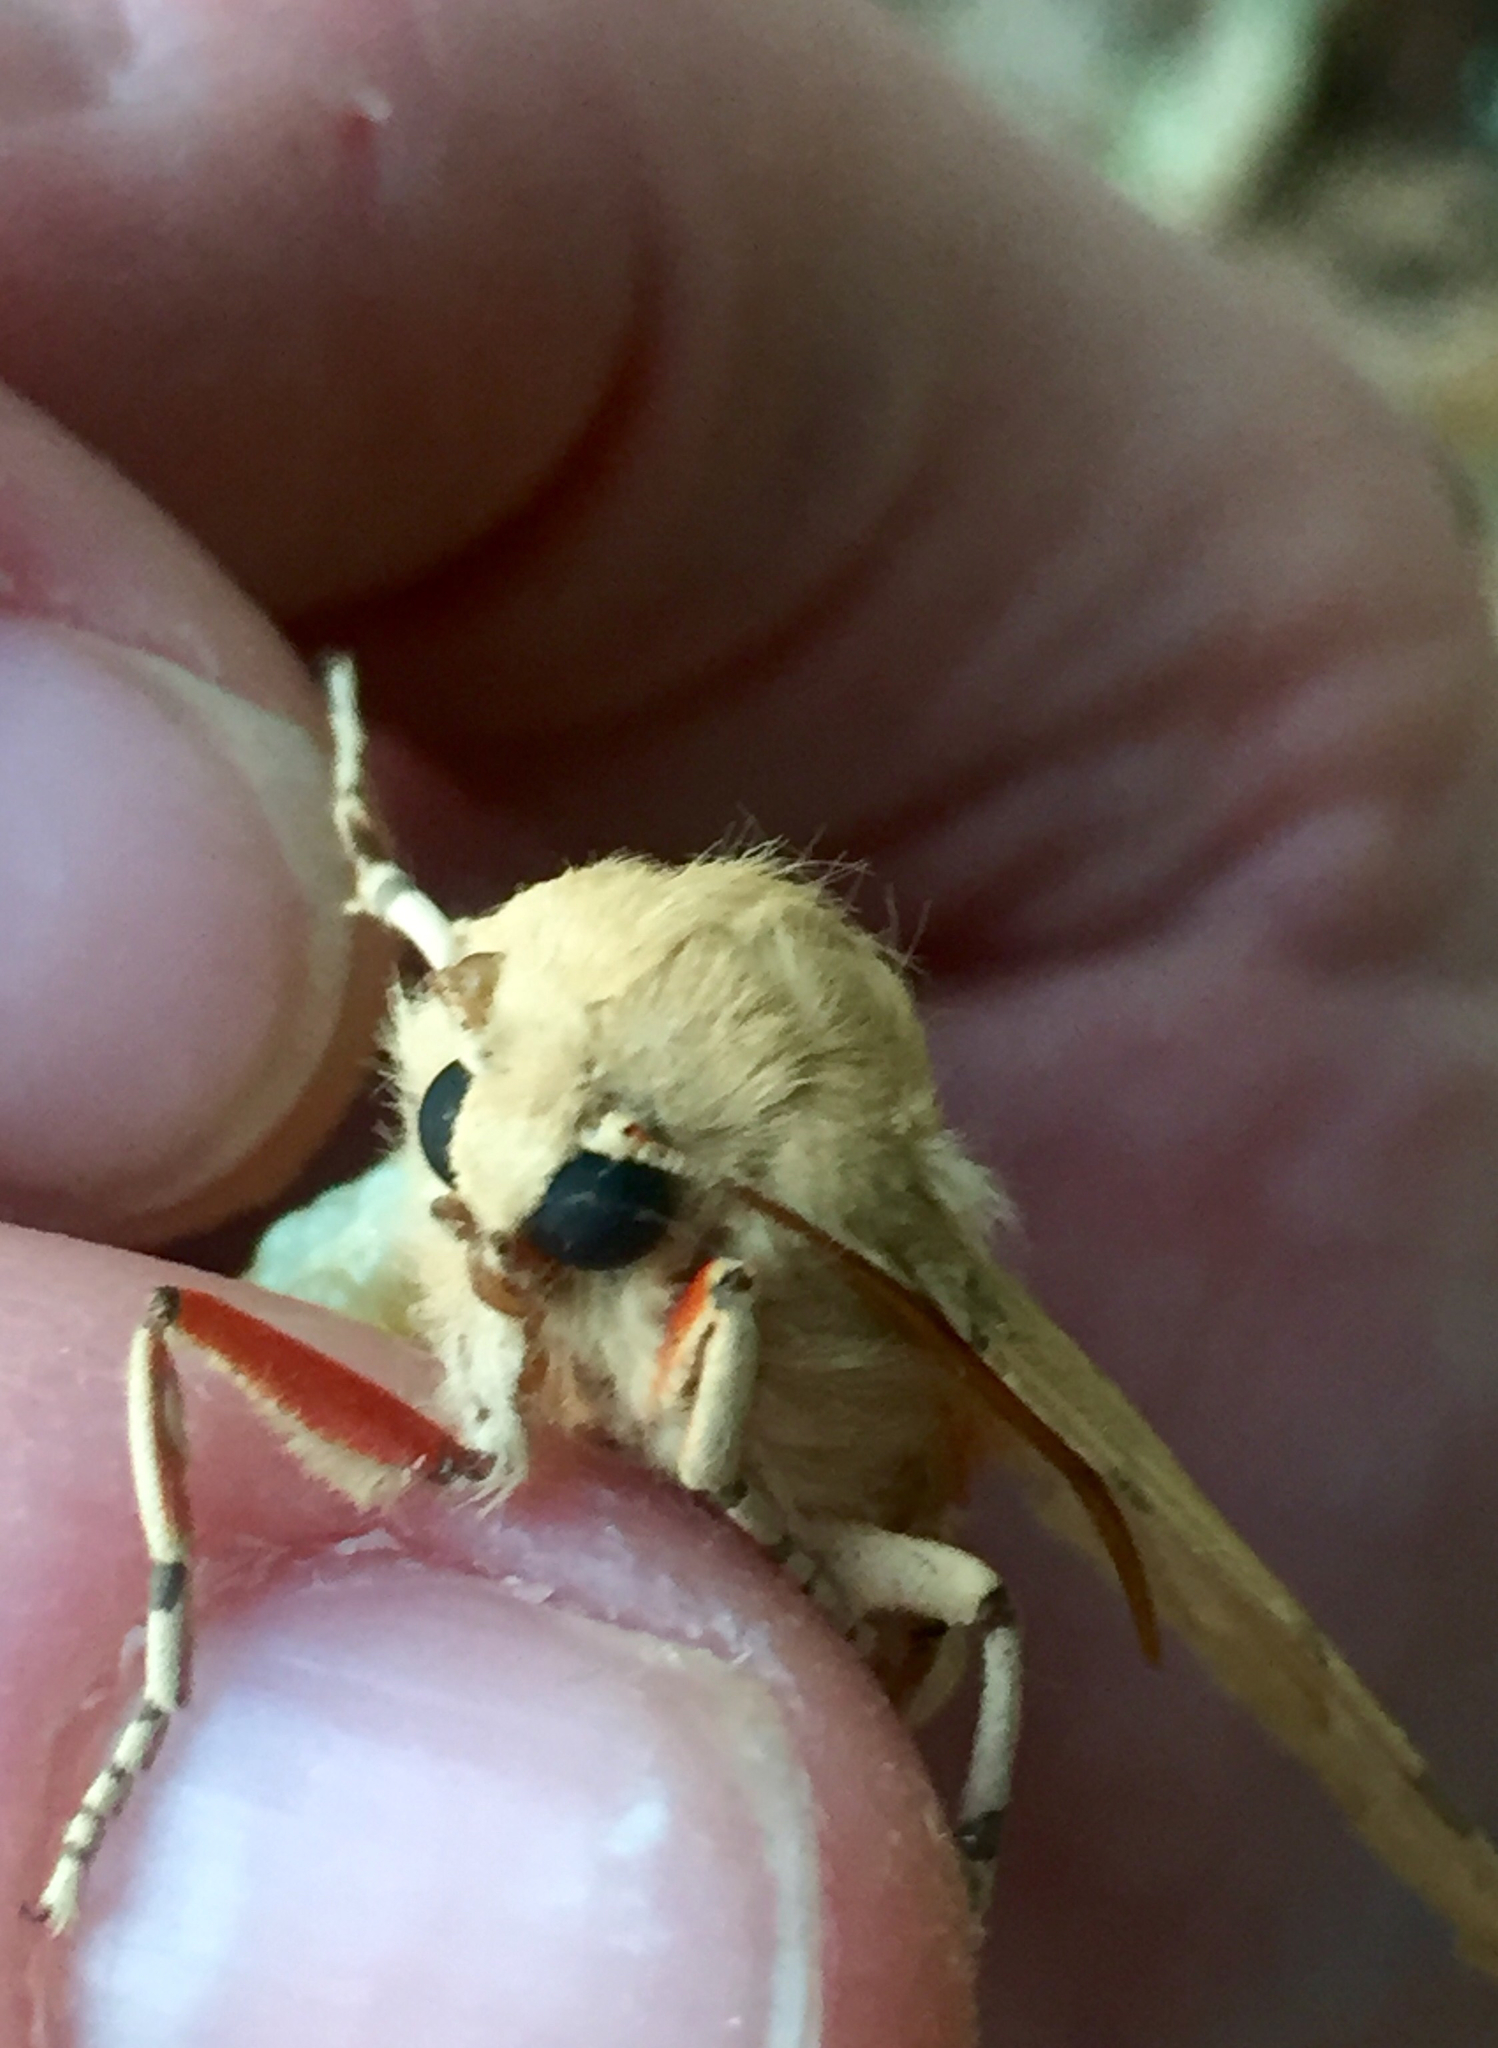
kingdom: Animalia
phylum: Arthropoda
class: Insecta
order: Lepidoptera
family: Erebidae
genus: Hemihyalea
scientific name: Hemihyalea edwardsii
